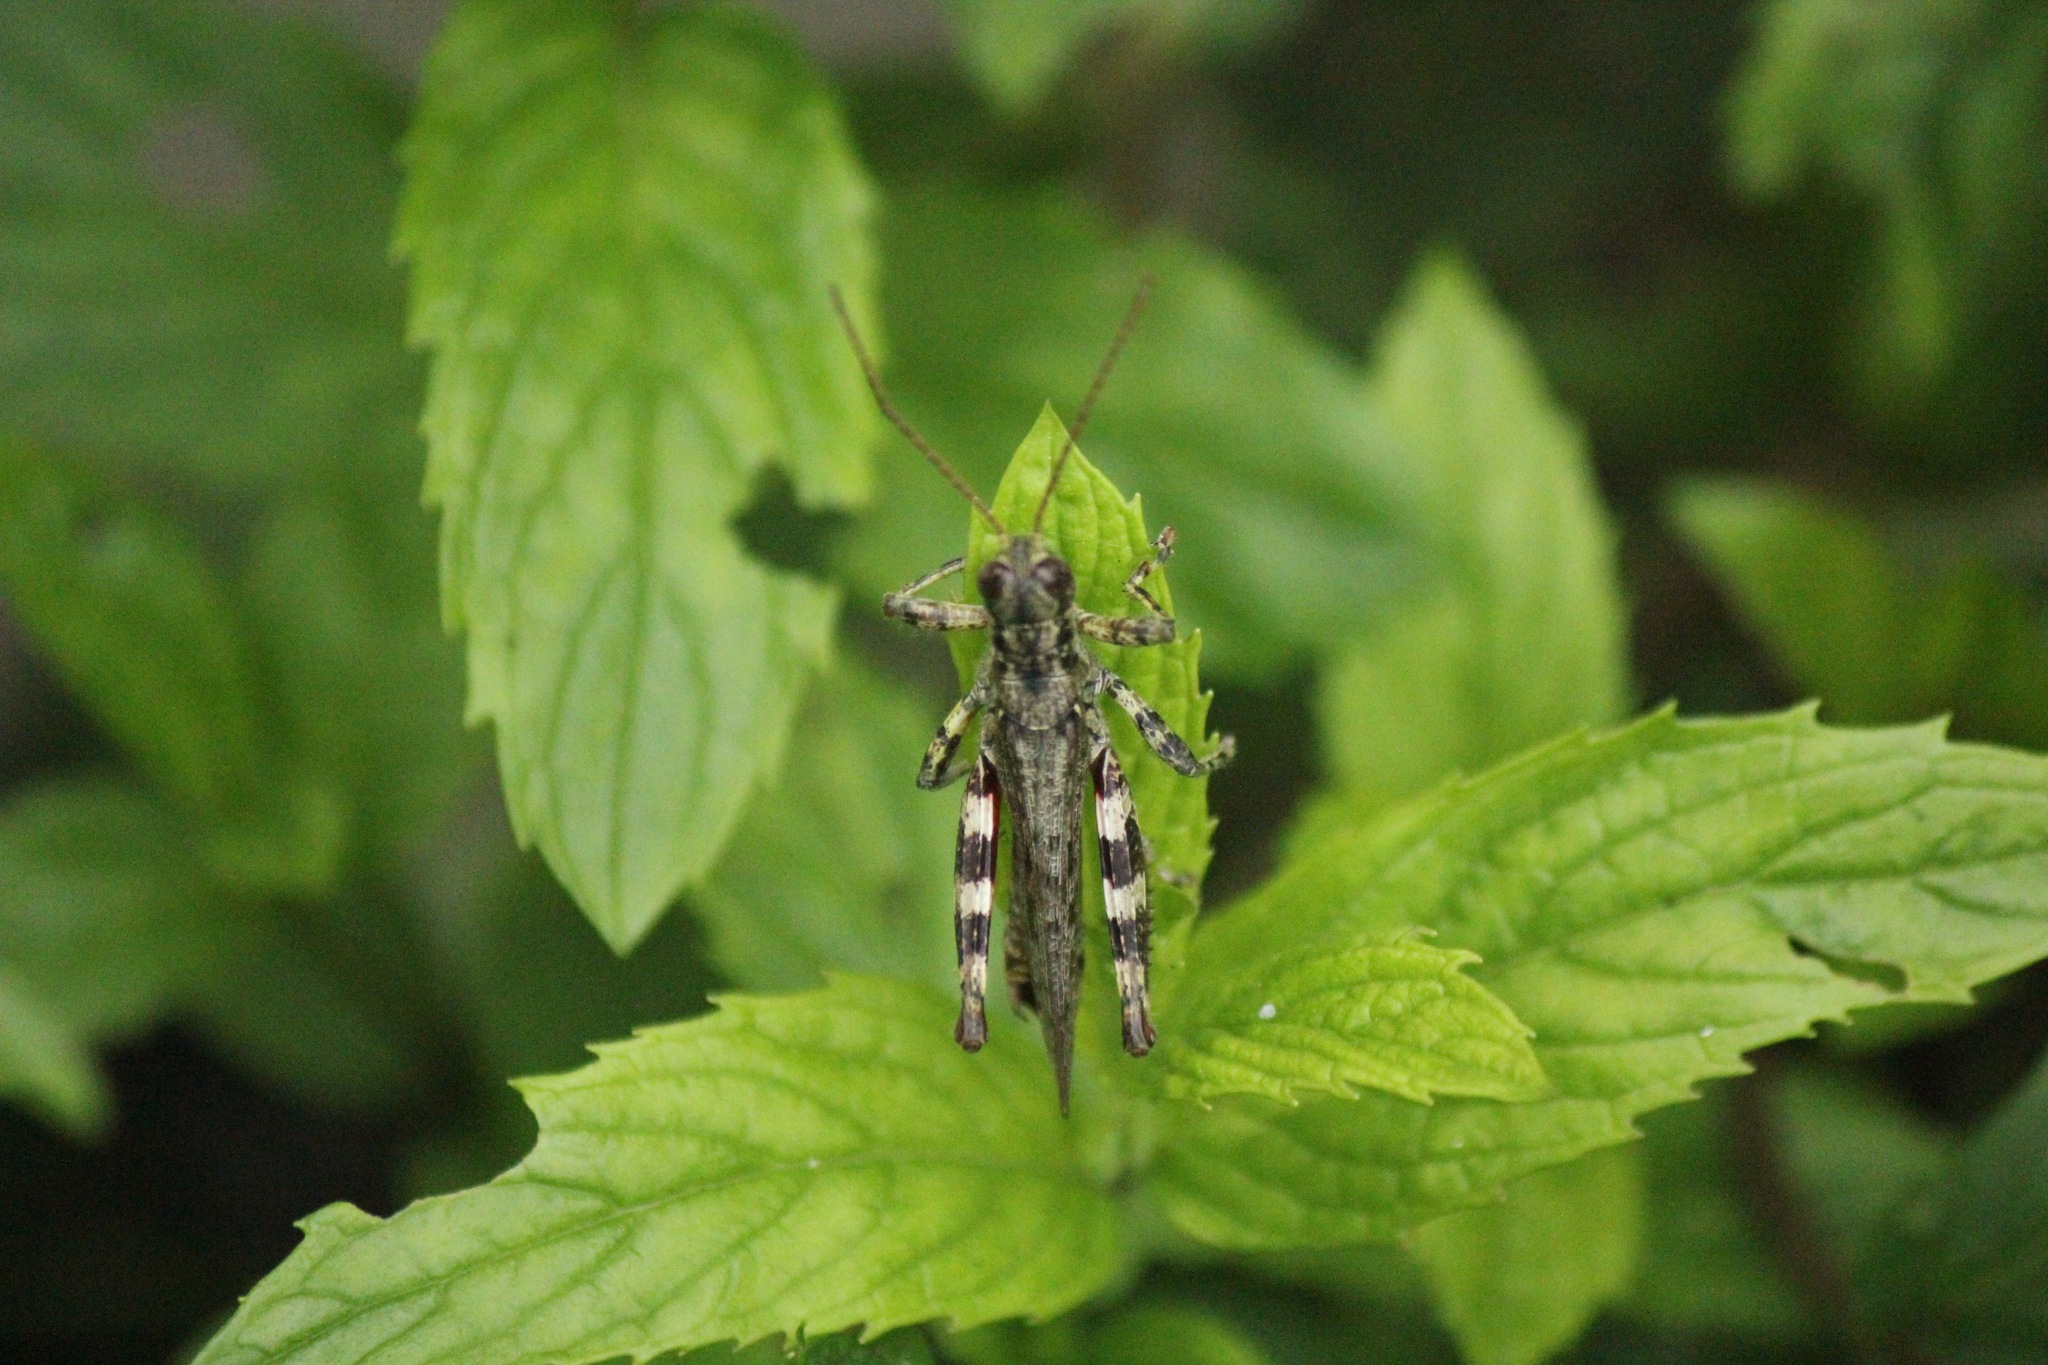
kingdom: Animalia
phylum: Arthropoda
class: Insecta
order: Orthoptera
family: Acrididae
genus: Melanoplus
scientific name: Melanoplus punctulatus
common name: Pine-tree spur-throat grasshopper
